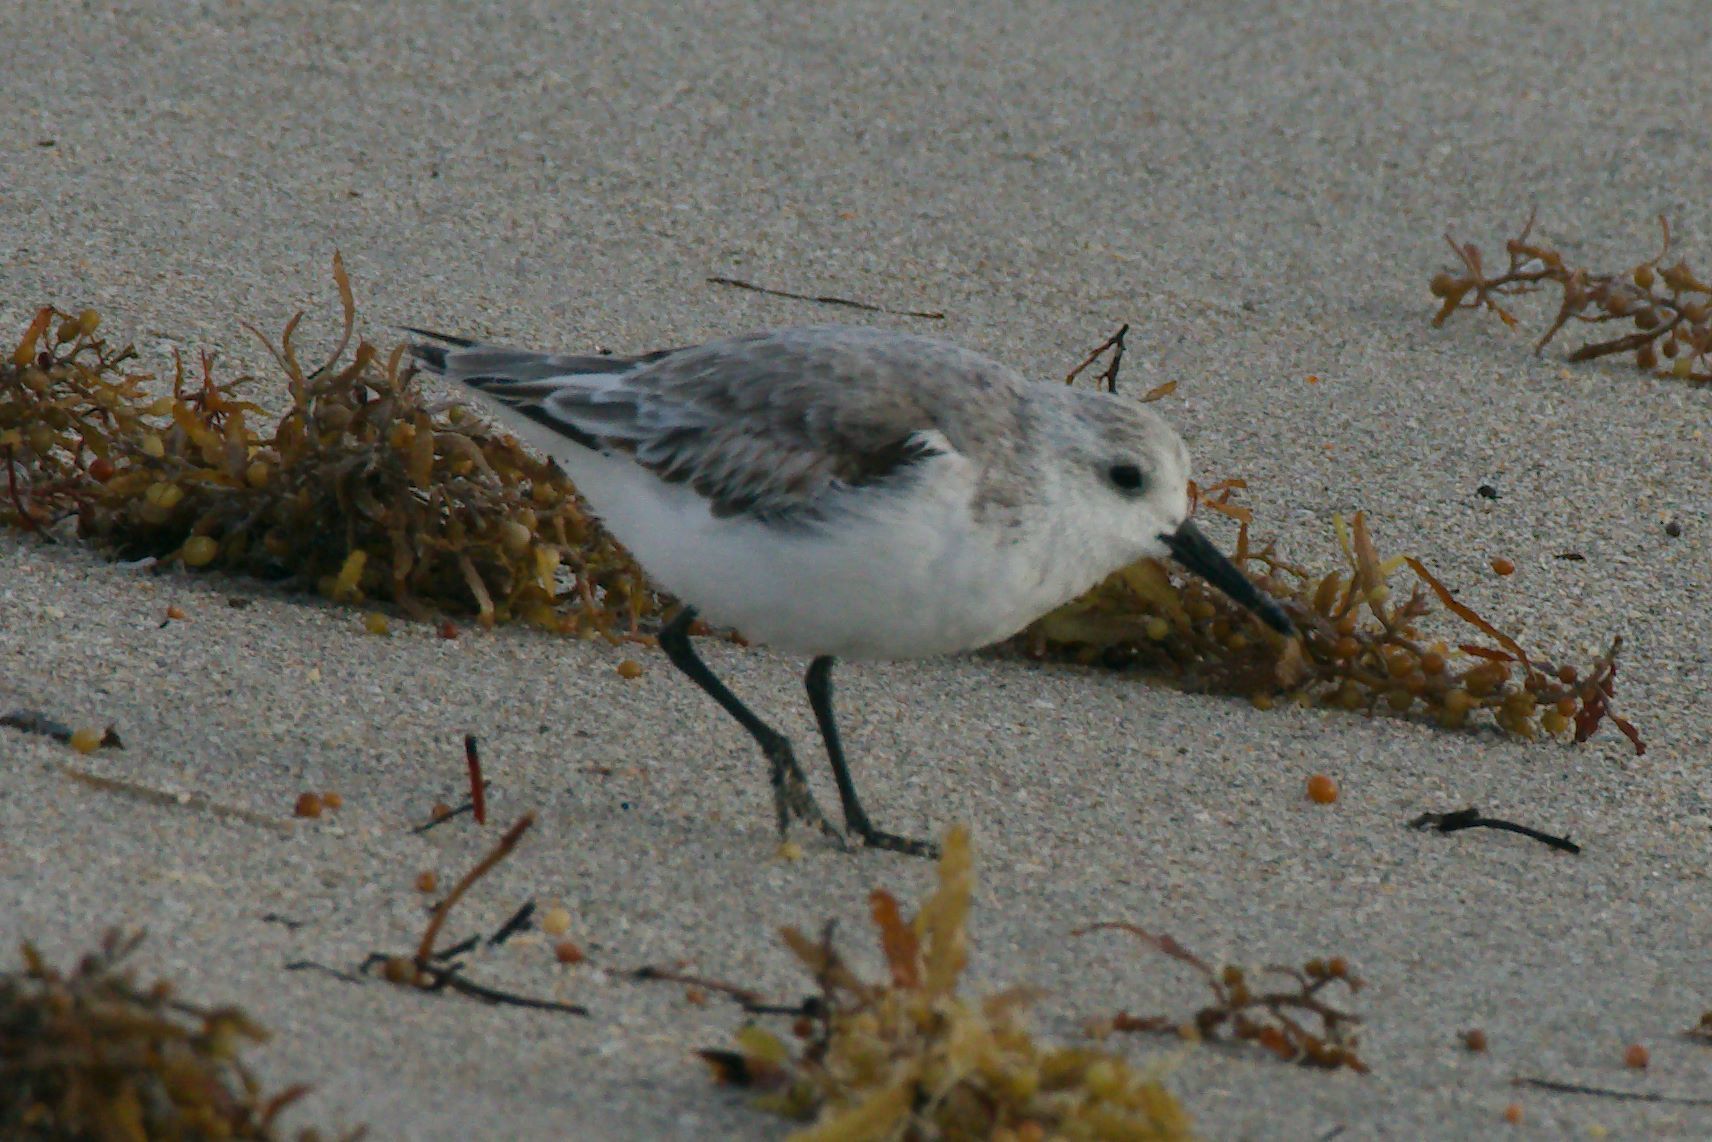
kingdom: Animalia
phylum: Chordata
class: Aves
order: Charadriiformes
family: Scolopacidae
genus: Calidris
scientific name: Calidris alba
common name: Sanderling
